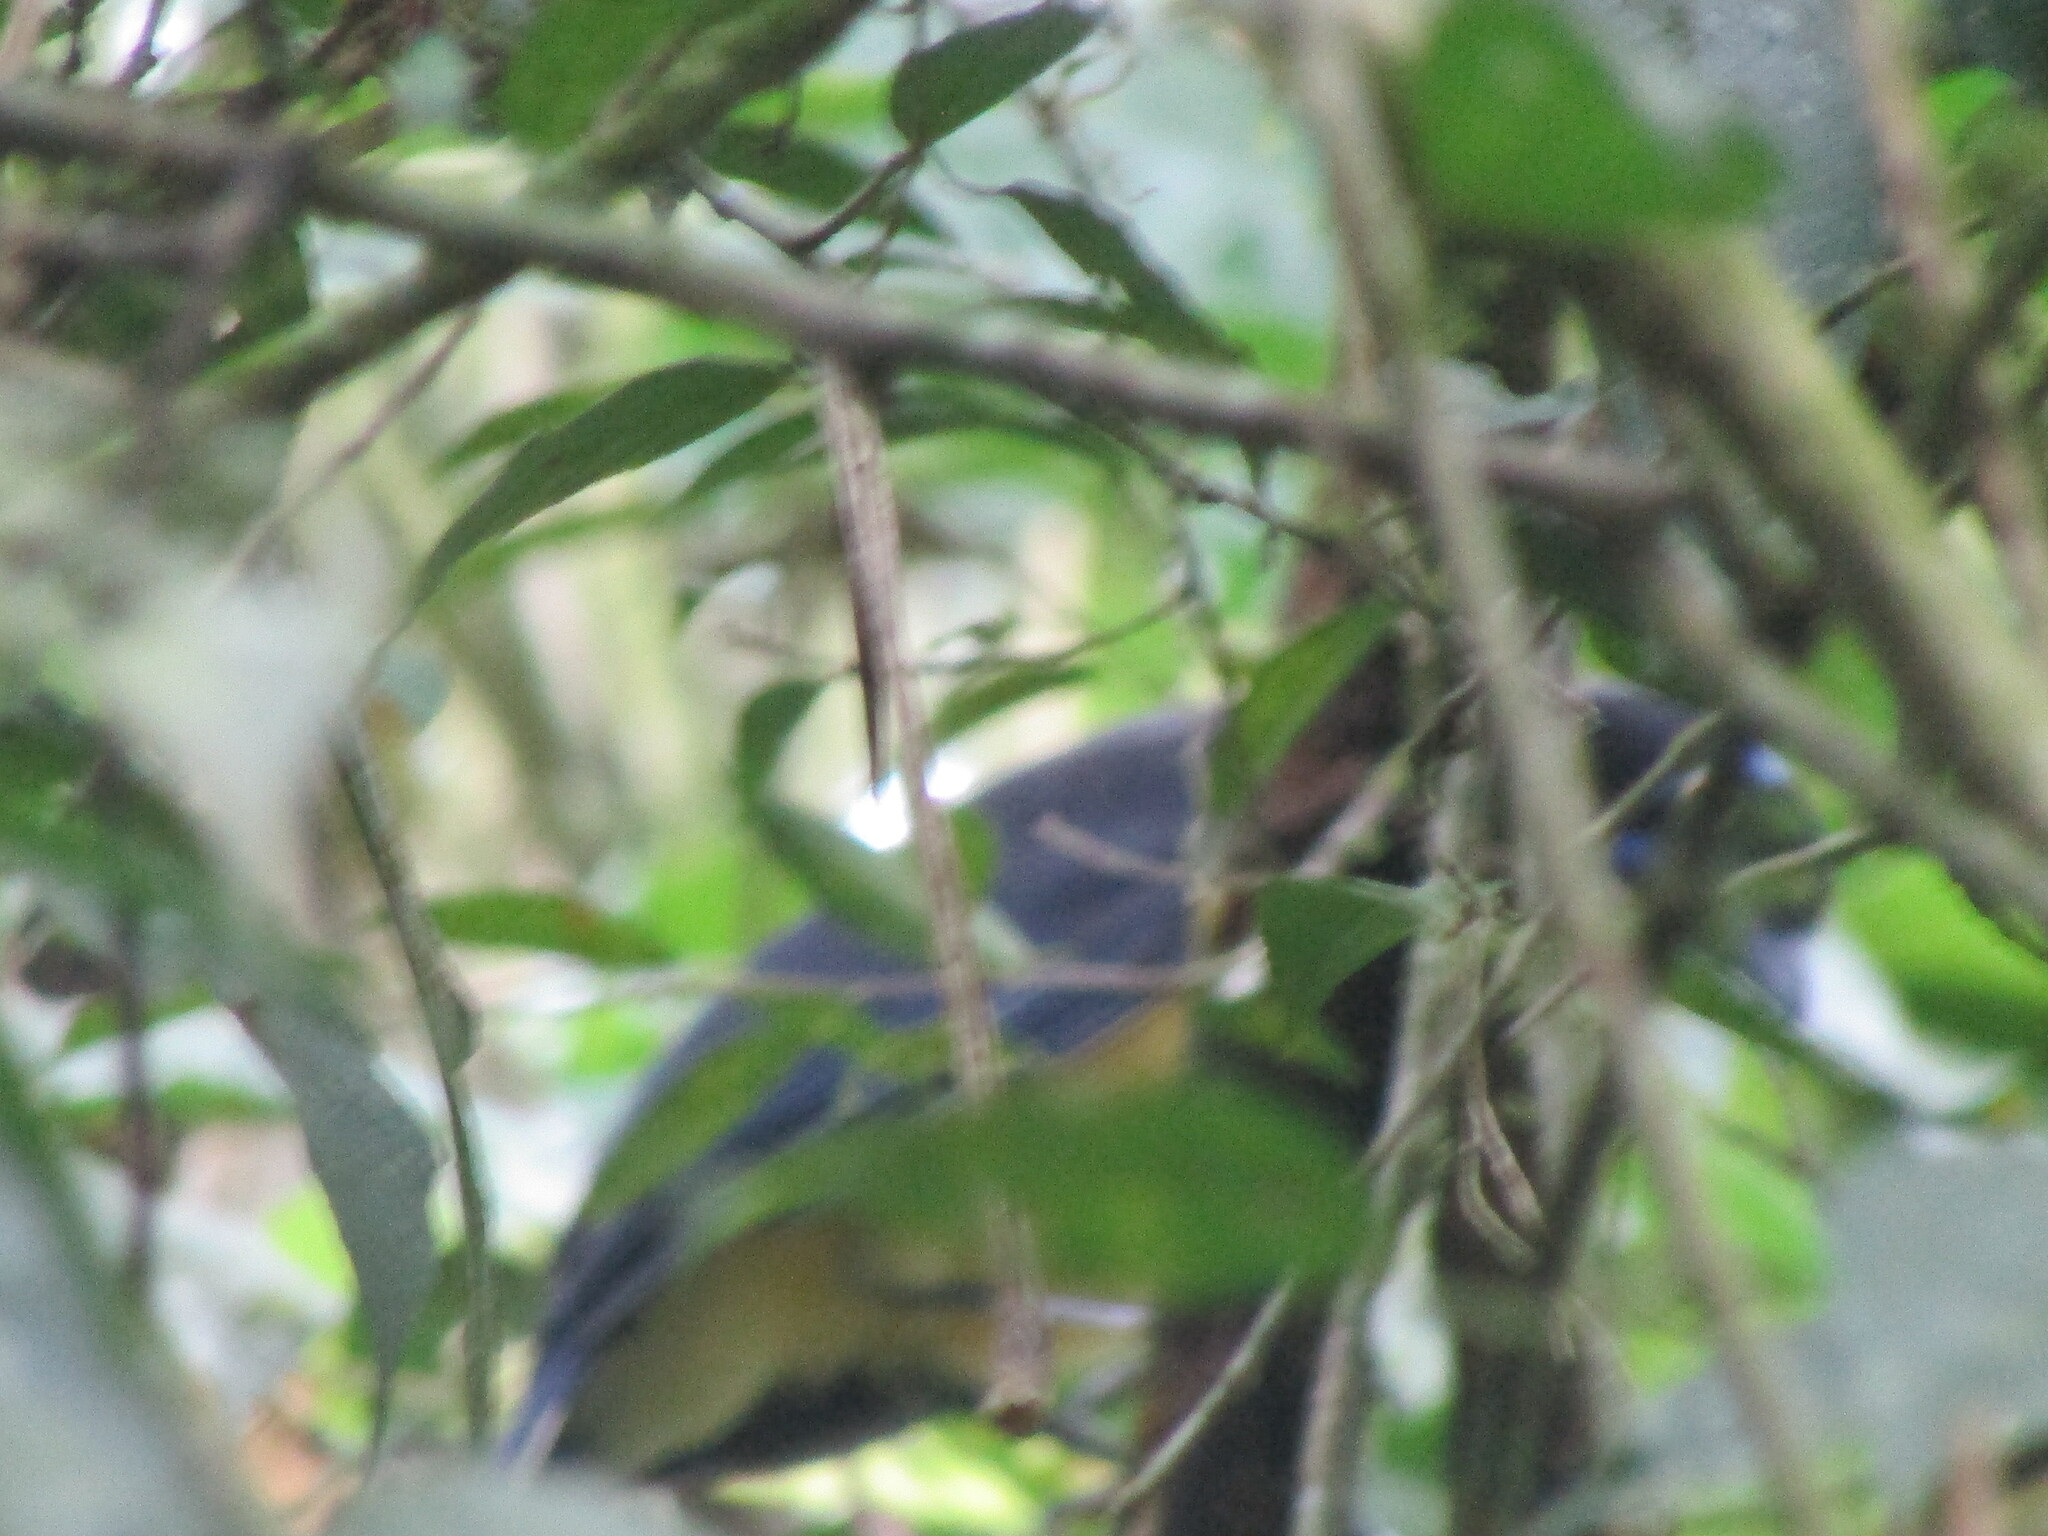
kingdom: Animalia
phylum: Chordata
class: Aves
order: Passeriformes
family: Corvidae
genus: Cyanocorax
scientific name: Cyanocorax affinis
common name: Black-chested jay
